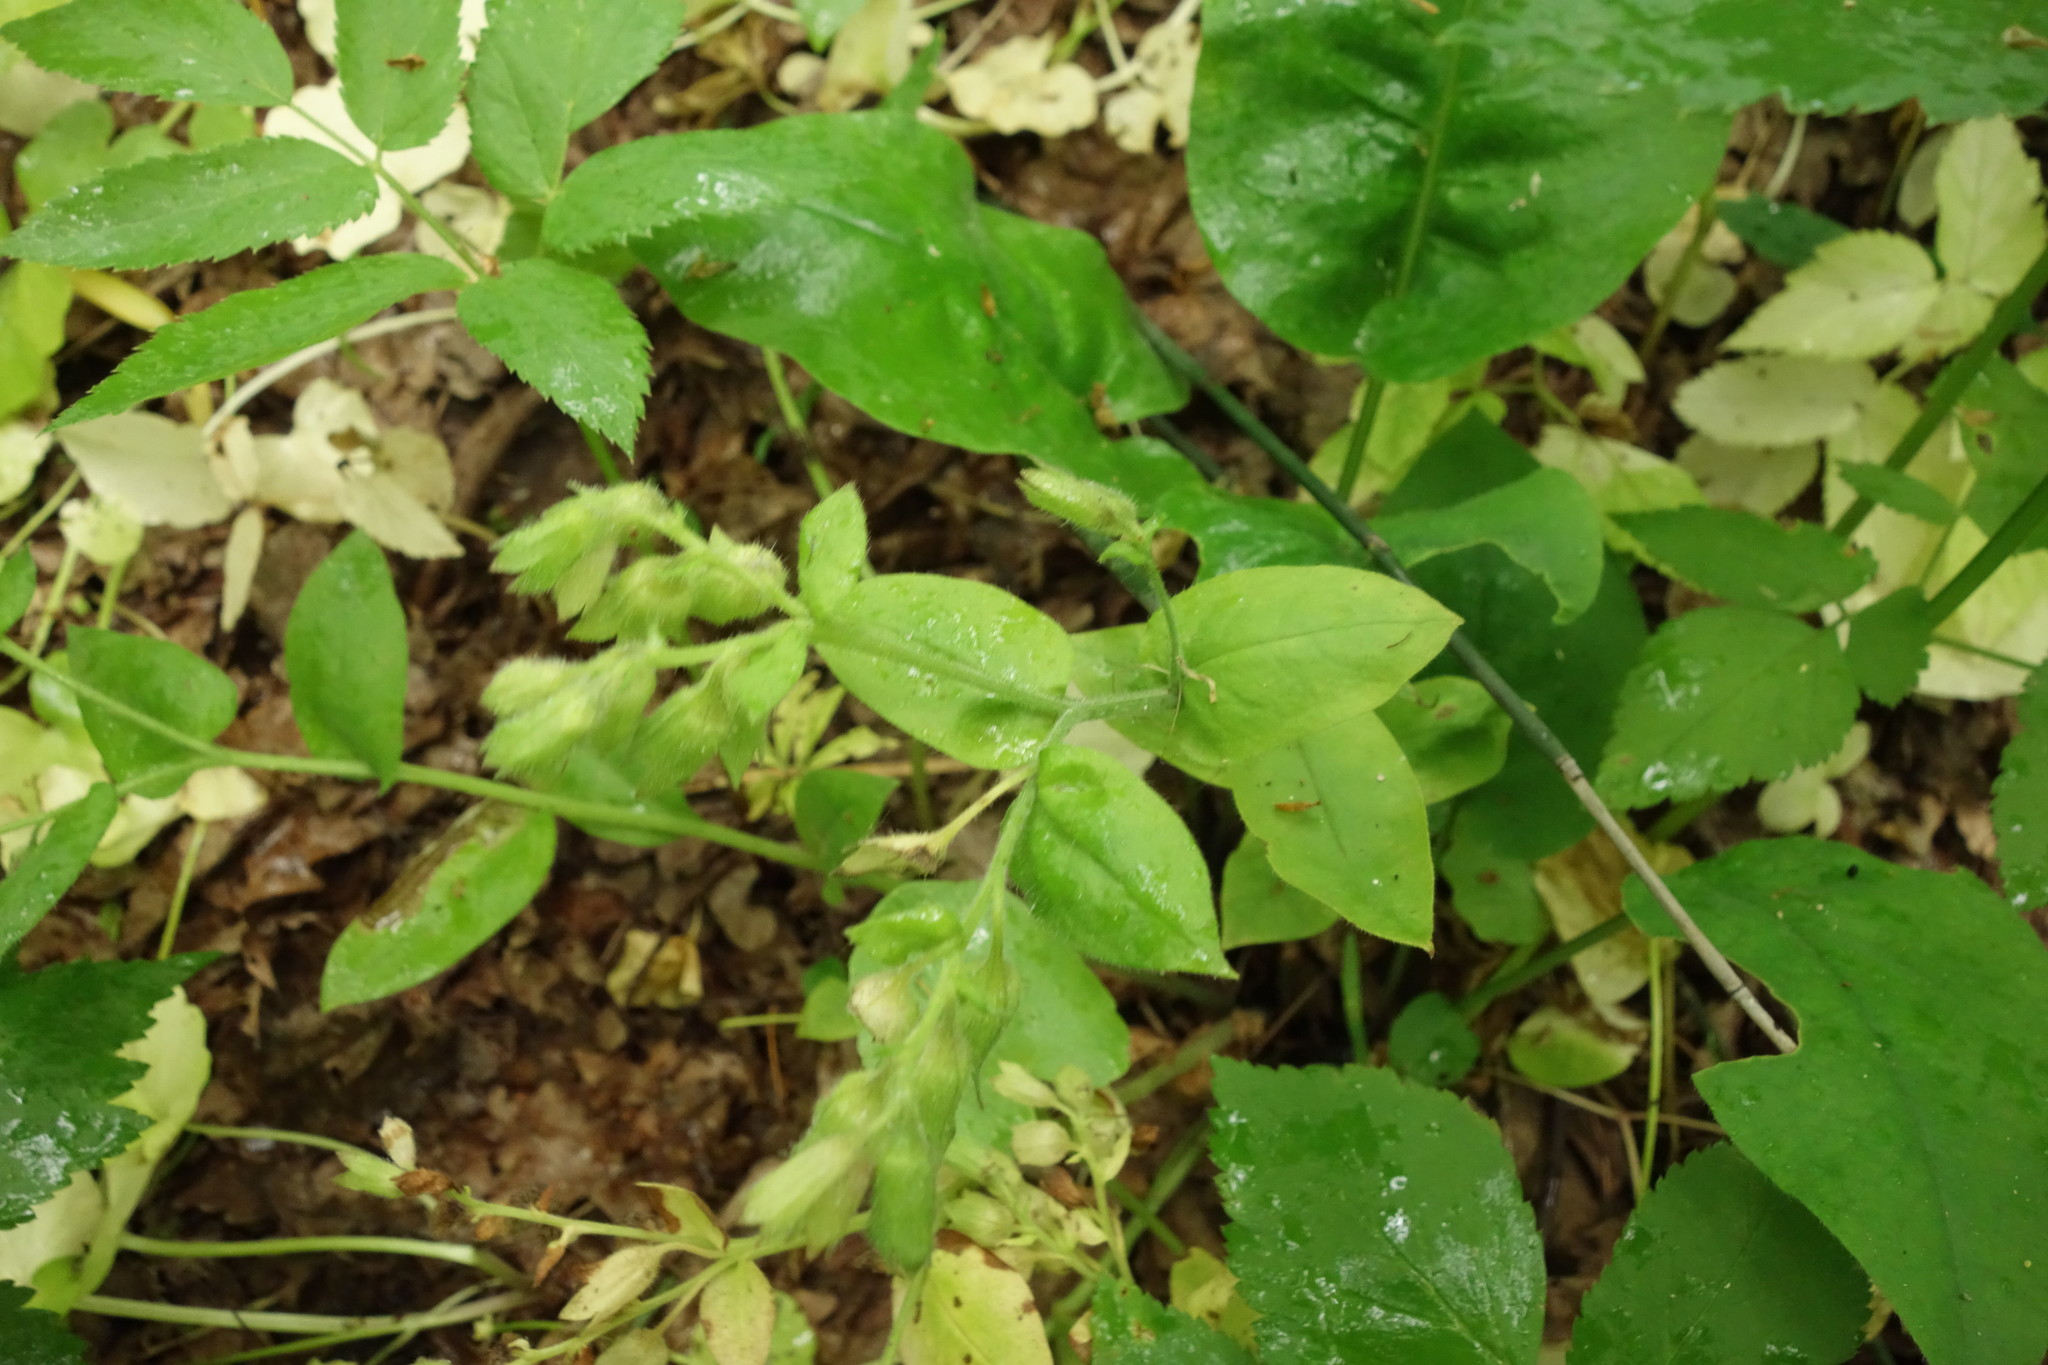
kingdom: Plantae
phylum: Tracheophyta
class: Magnoliopsida
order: Boraginales
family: Boraginaceae
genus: Pulmonaria
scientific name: Pulmonaria obscura
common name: Suffolk lungwort
